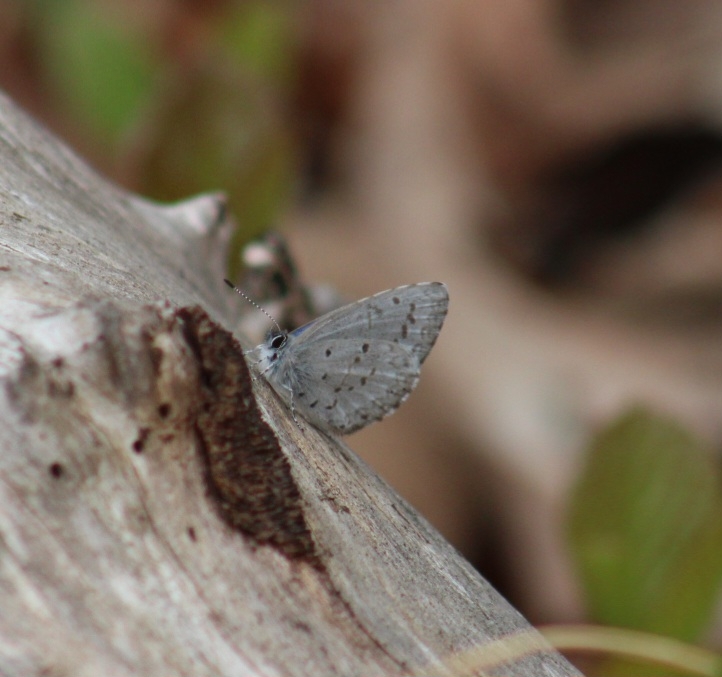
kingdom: Animalia
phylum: Arthropoda
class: Insecta
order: Lepidoptera
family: Lycaenidae
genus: Celastrina
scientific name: Celastrina ladon
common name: Spring azure
